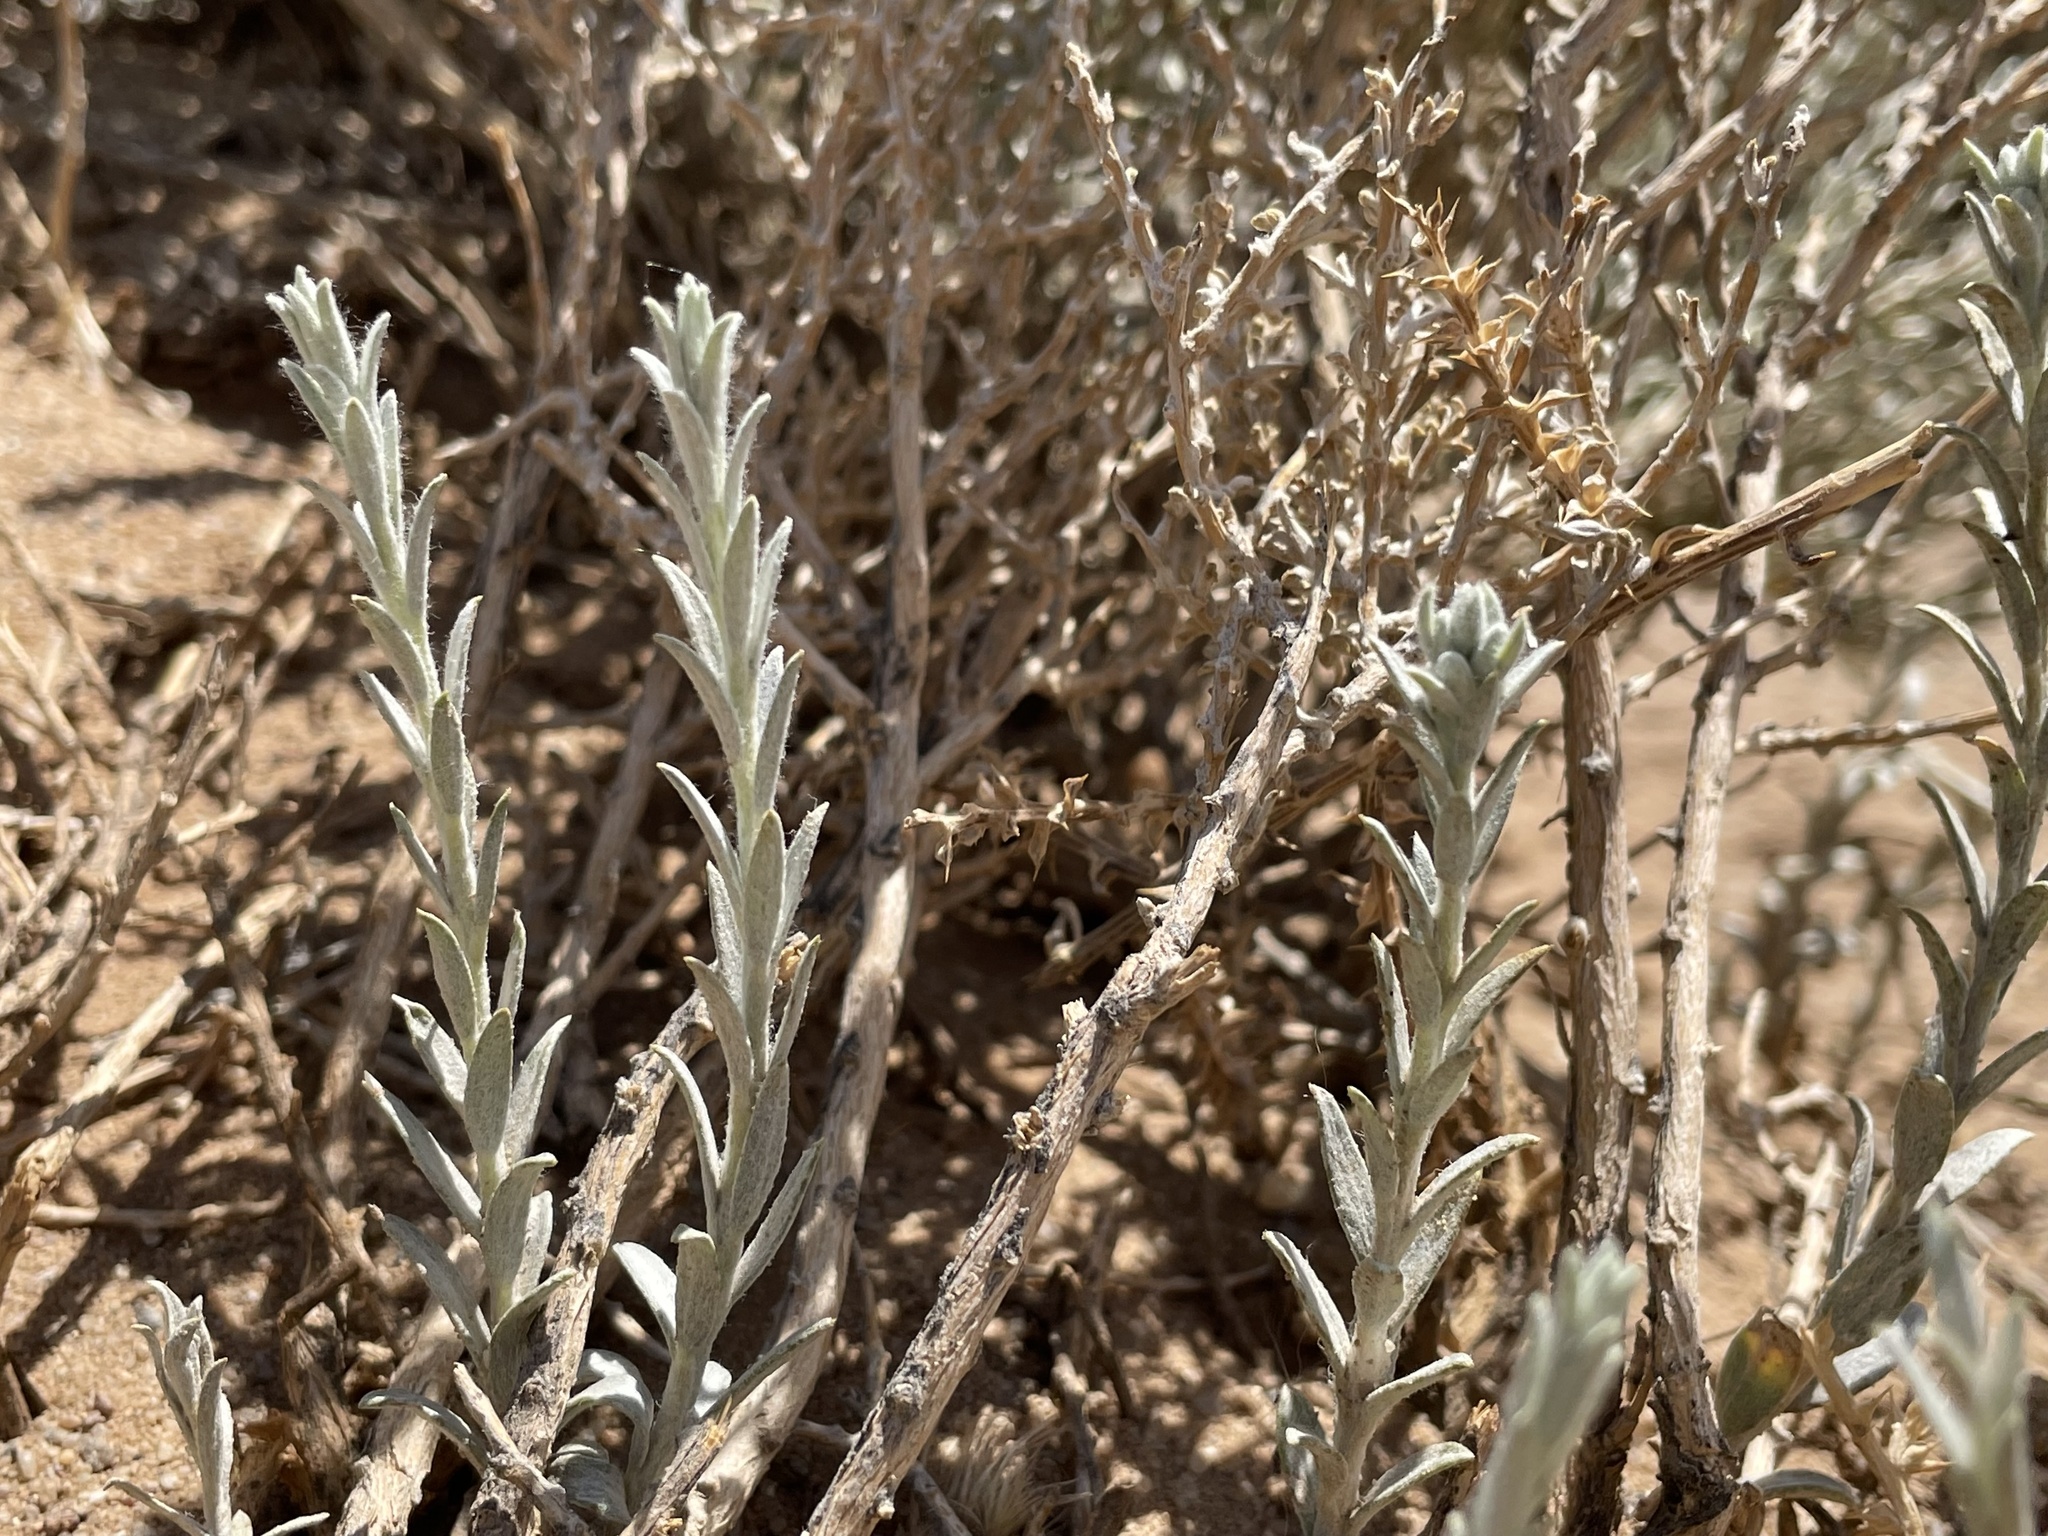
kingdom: Plantae
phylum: Tracheophyta
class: Magnoliopsida
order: Asterales
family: Asteraceae
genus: Tetradymia
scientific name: Tetradymia canescens
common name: Spineless horsebrush
